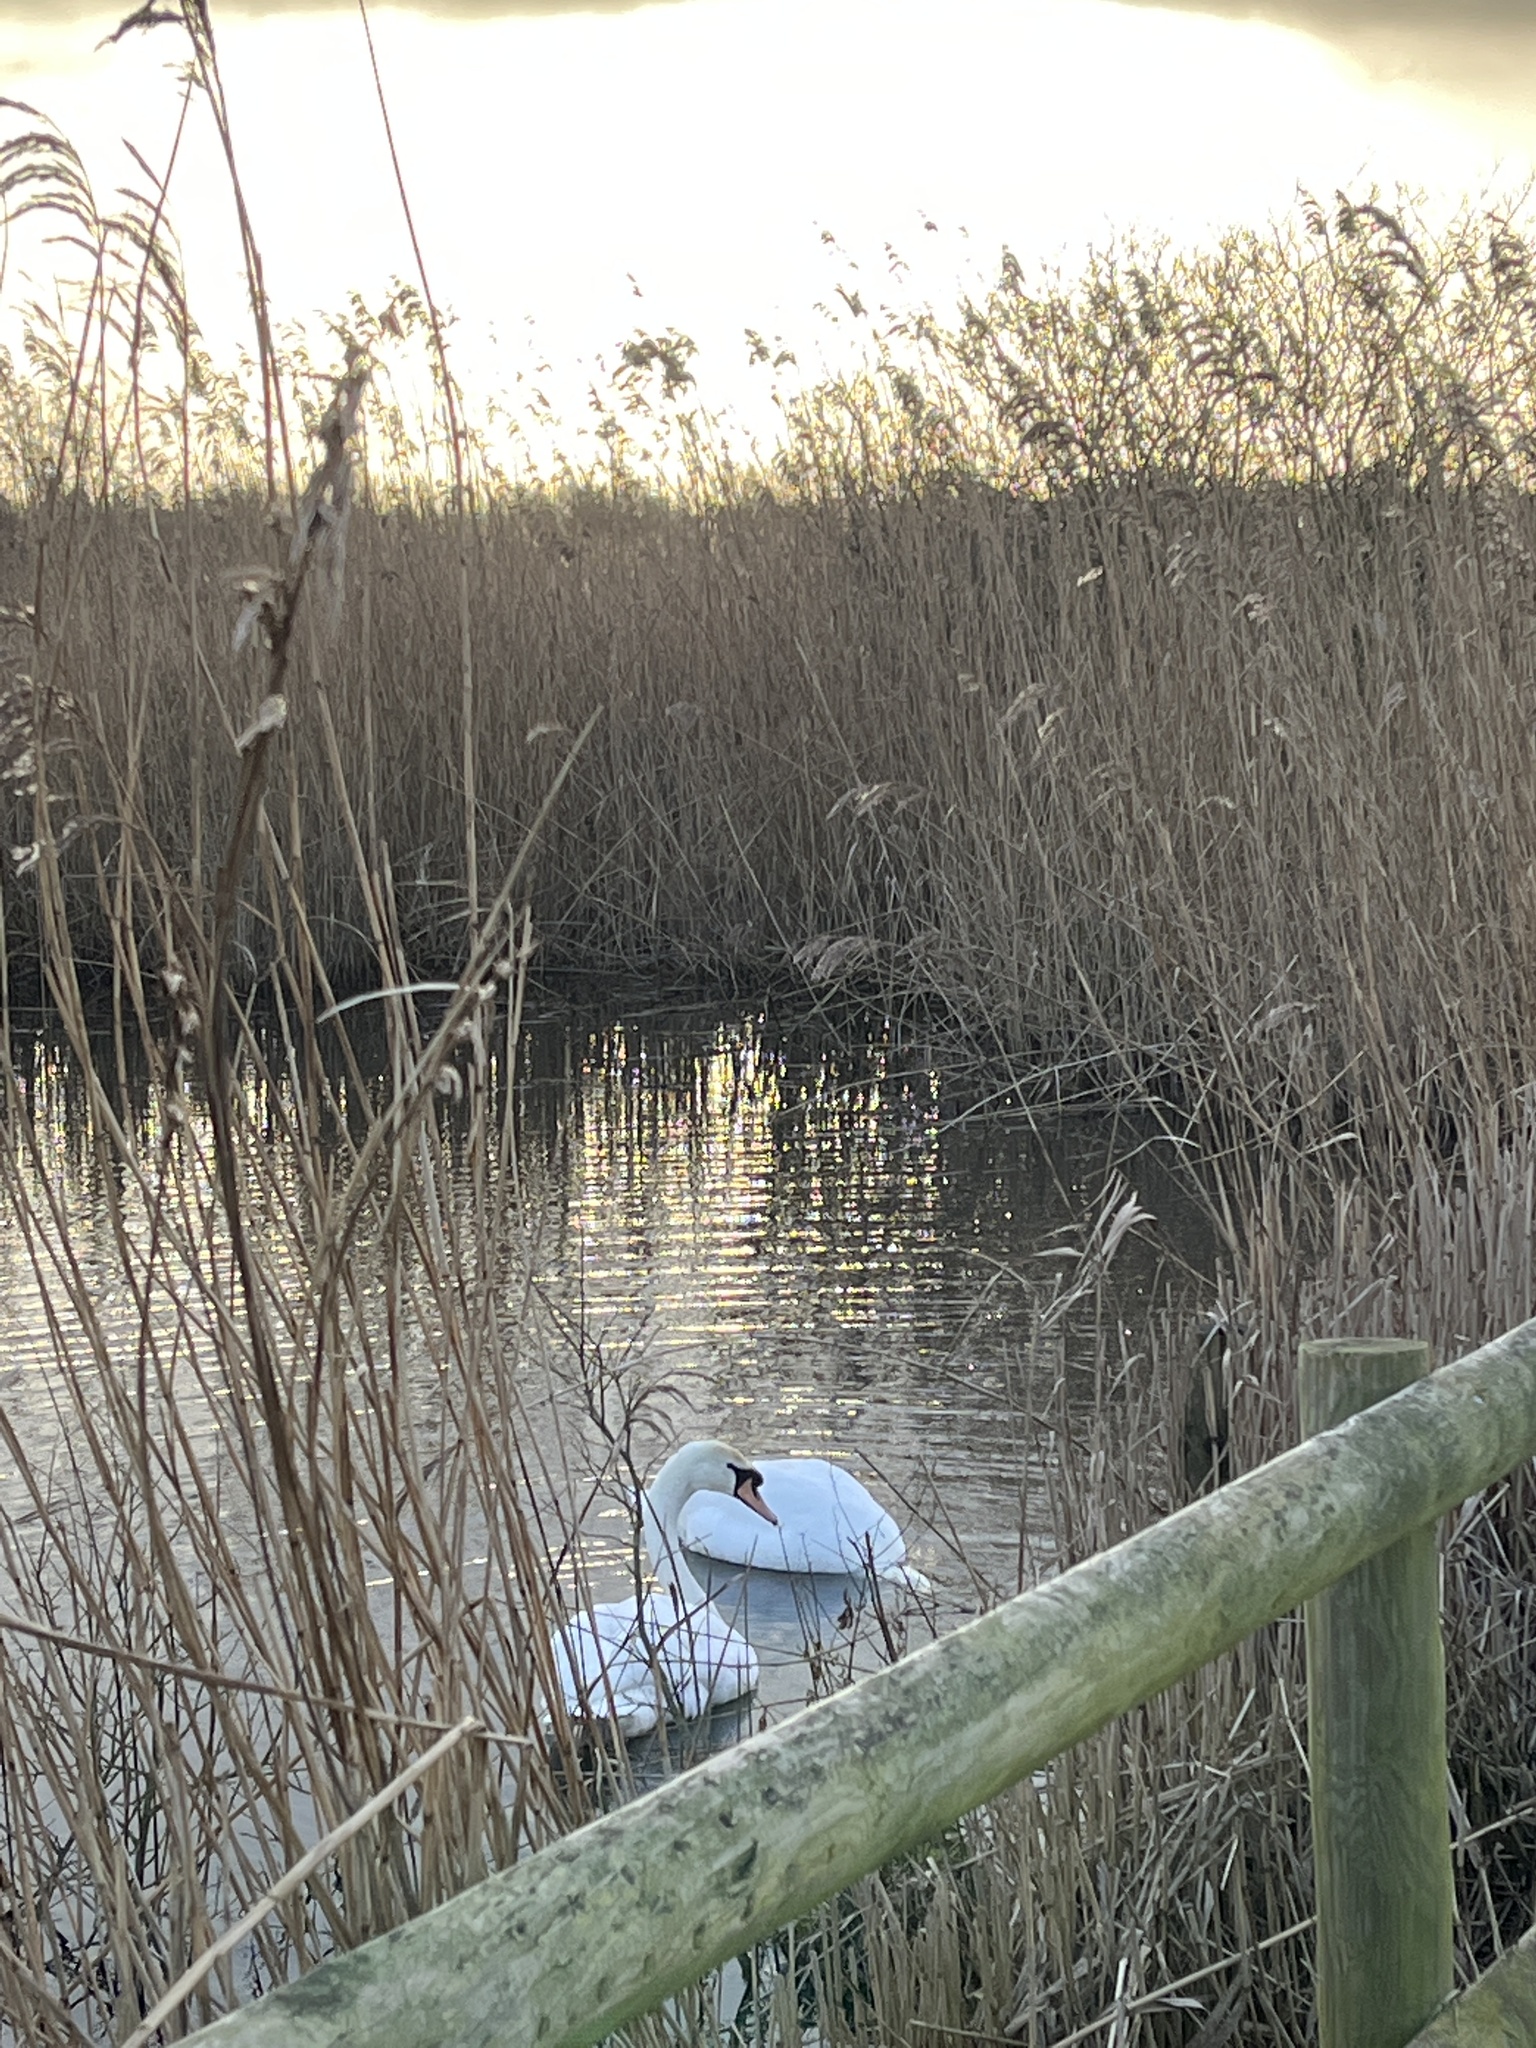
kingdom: Animalia
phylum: Chordata
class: Aves
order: Anseriformes
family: Anatidae
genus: Cygnus
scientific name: Cygnus olor
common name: Mute swan
